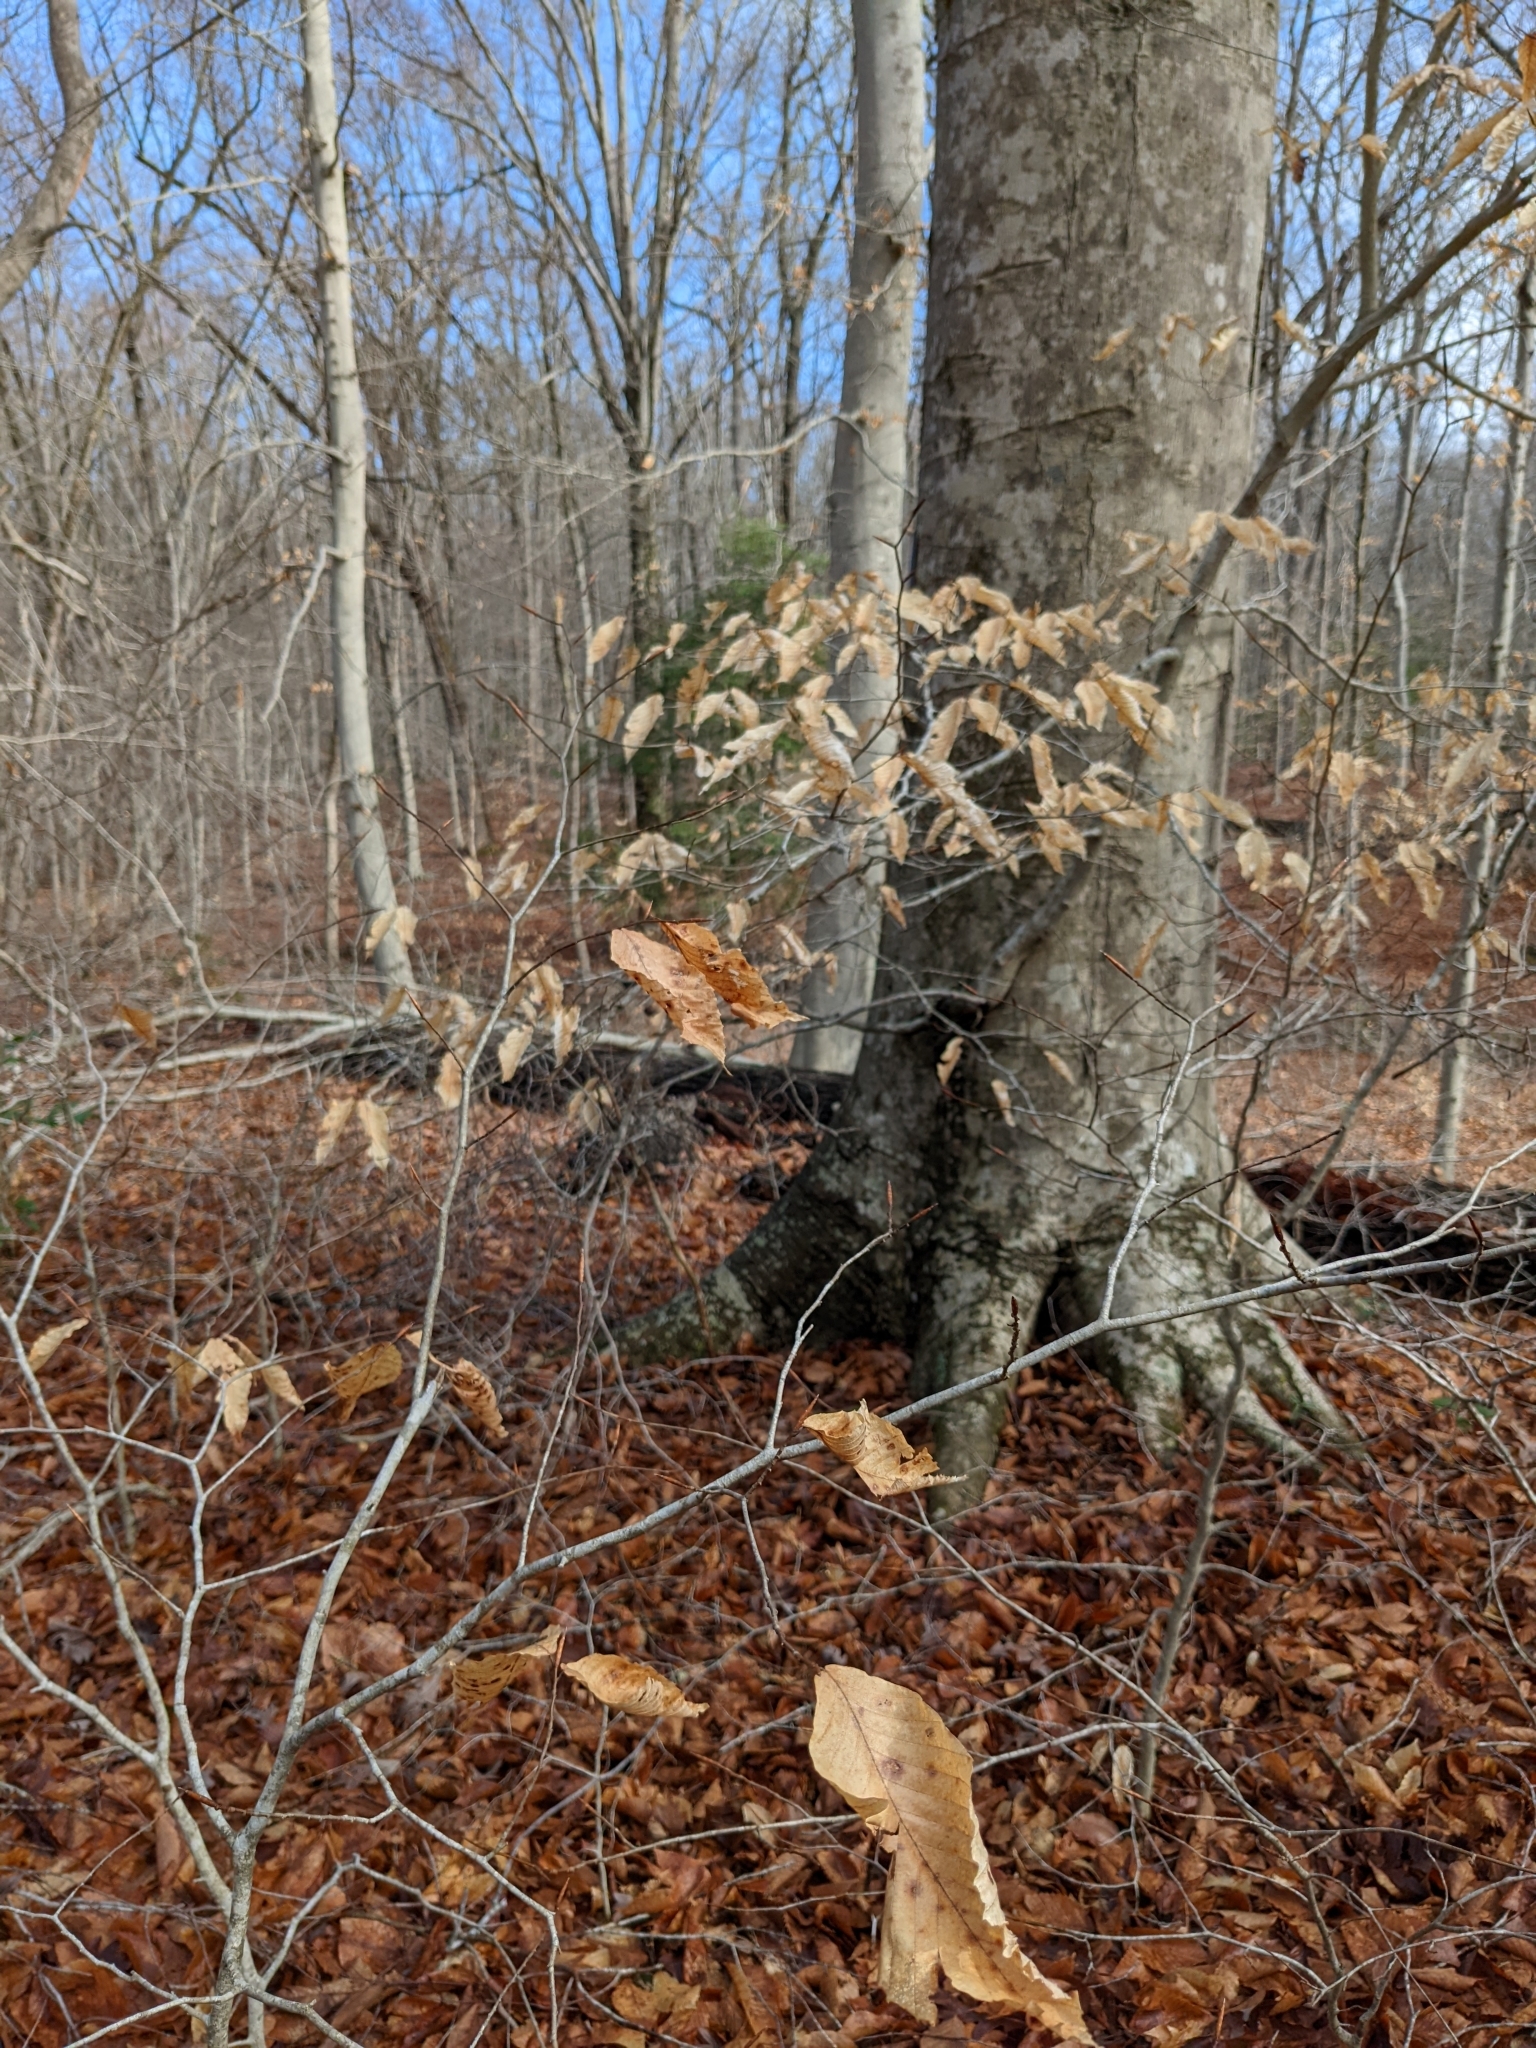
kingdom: Plantae
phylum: Tracheophyta
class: Magnoliopsida
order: Fagales
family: Fagaceae
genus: Fagus
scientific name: Fagus grandifolia
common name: American beech
